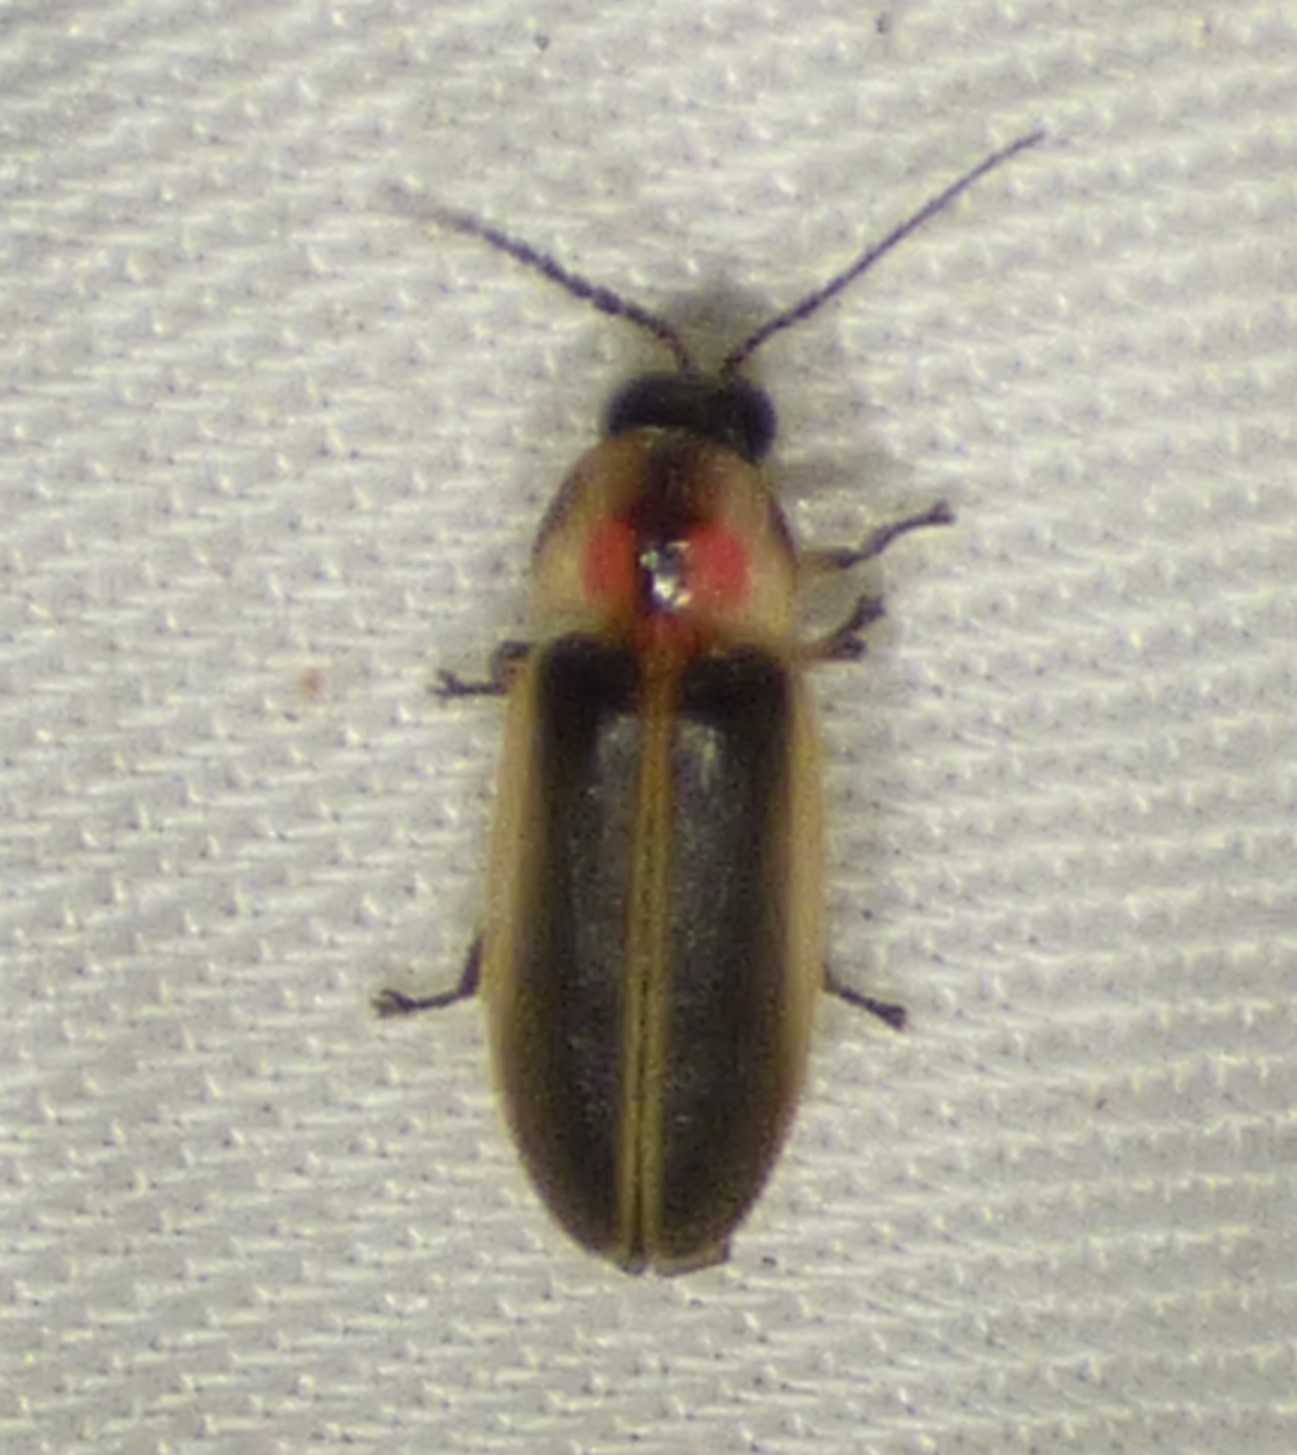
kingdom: Animalia
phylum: Arthropoda
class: Insecta
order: Coleoptera
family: Lampyridae
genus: Photinus
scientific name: Photinus australis
